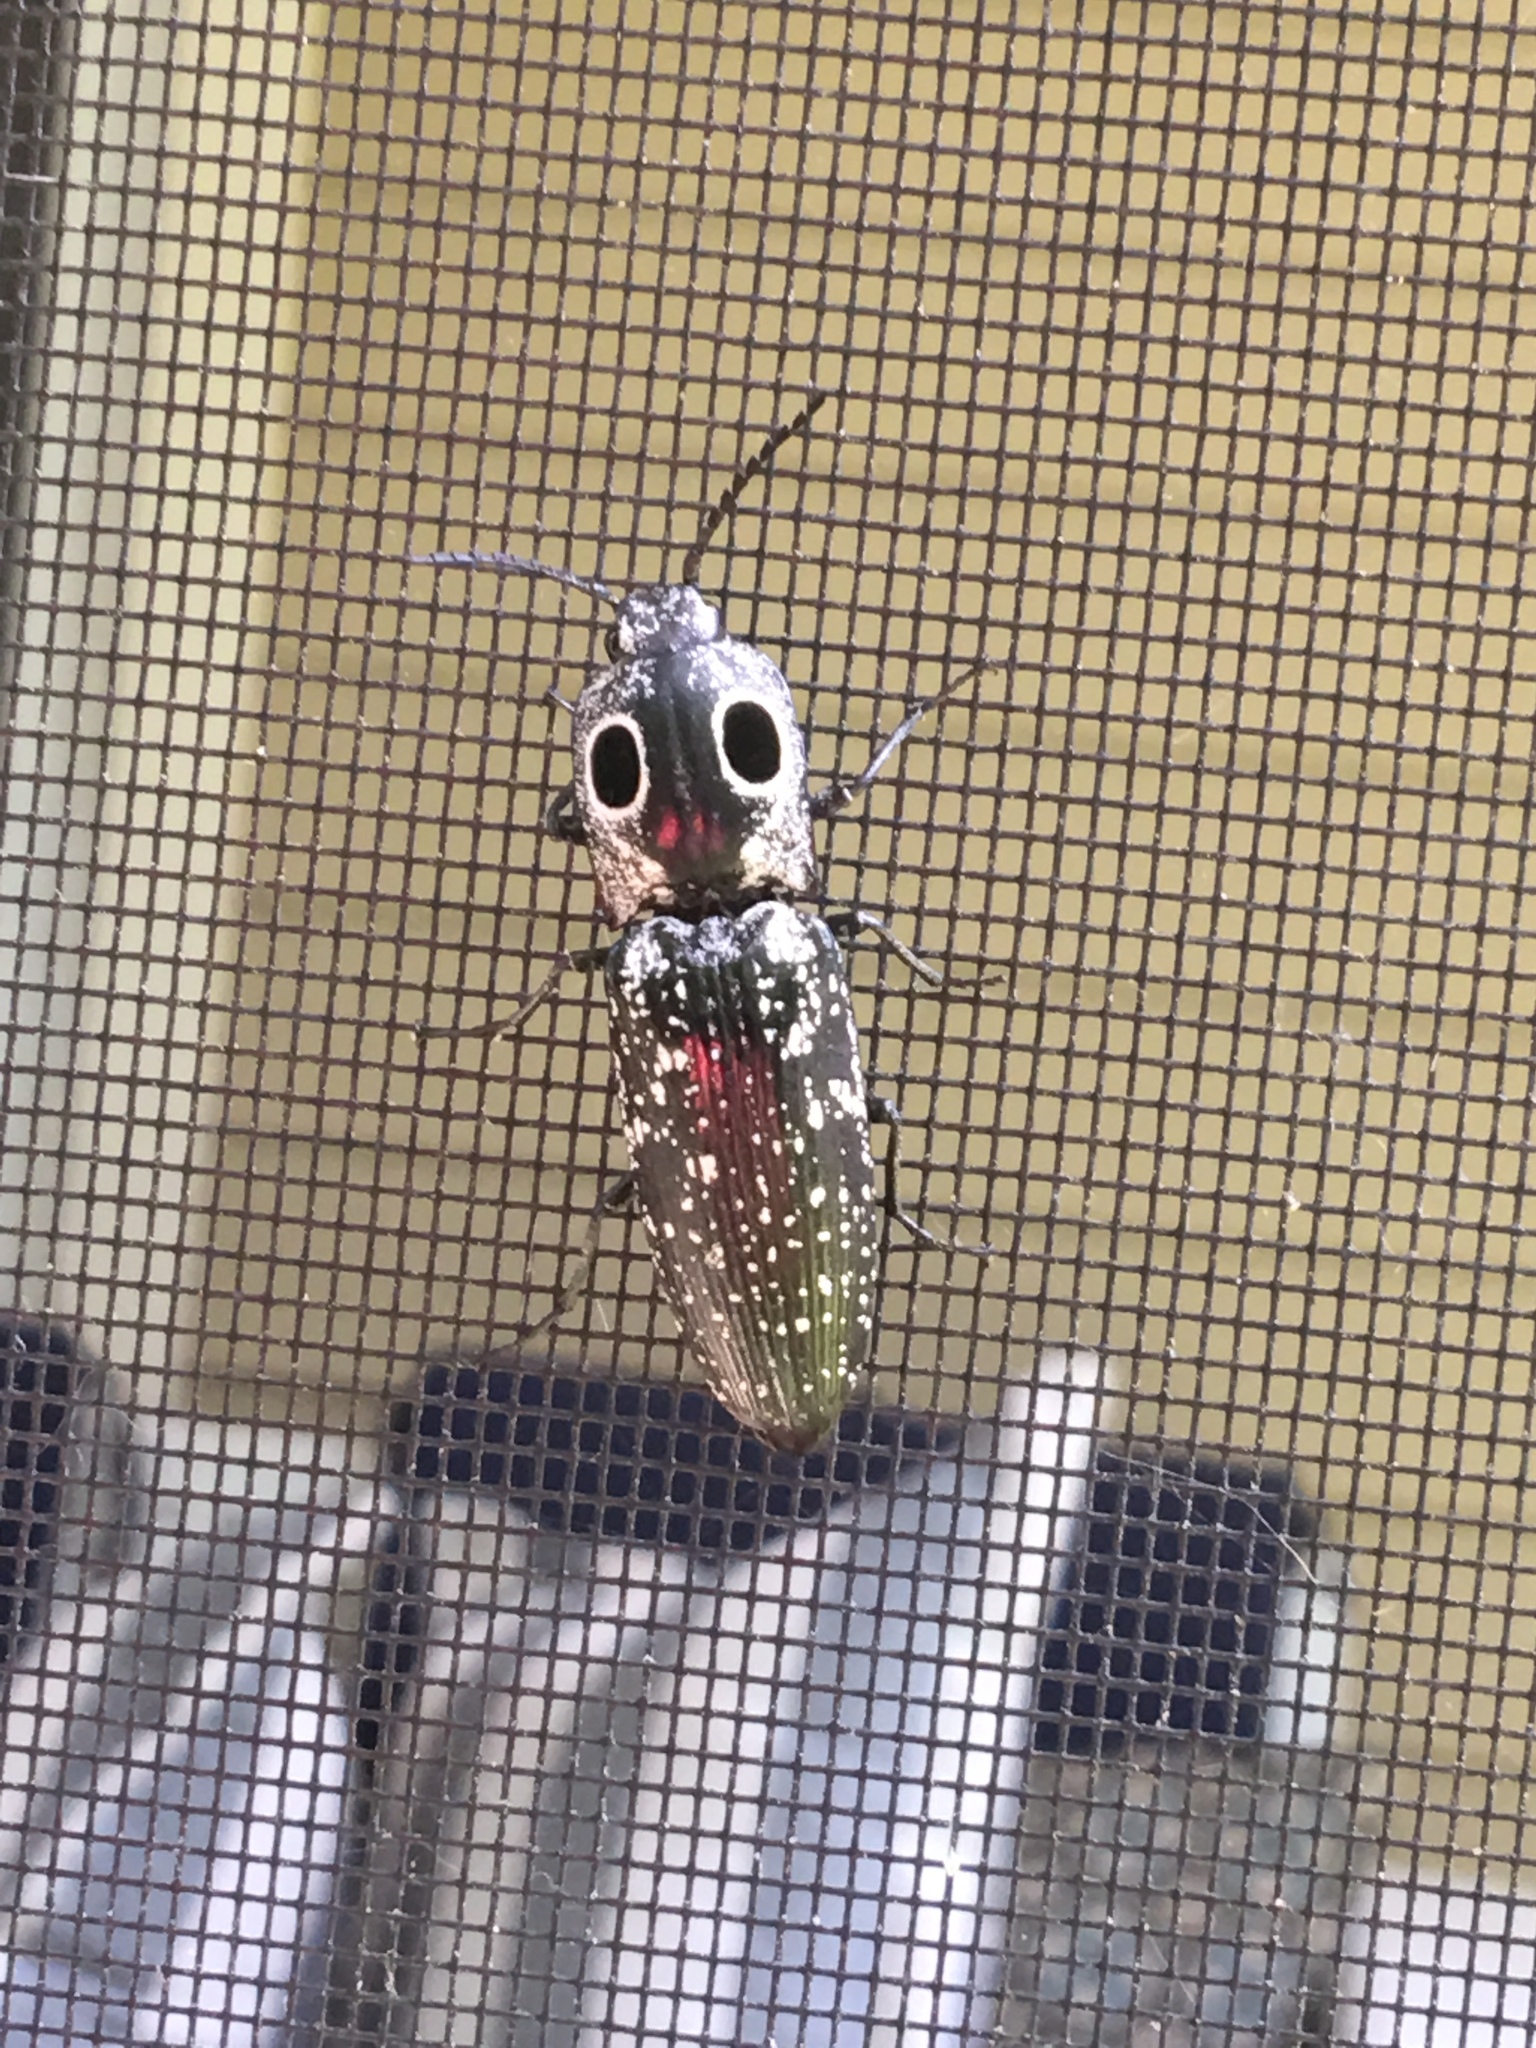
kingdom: Animalia
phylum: Arthropoda
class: Insecta
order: Coleoptera
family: Elateridae
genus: Alaus
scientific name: Alaus oculatus
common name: Eastern eyed click beetle
